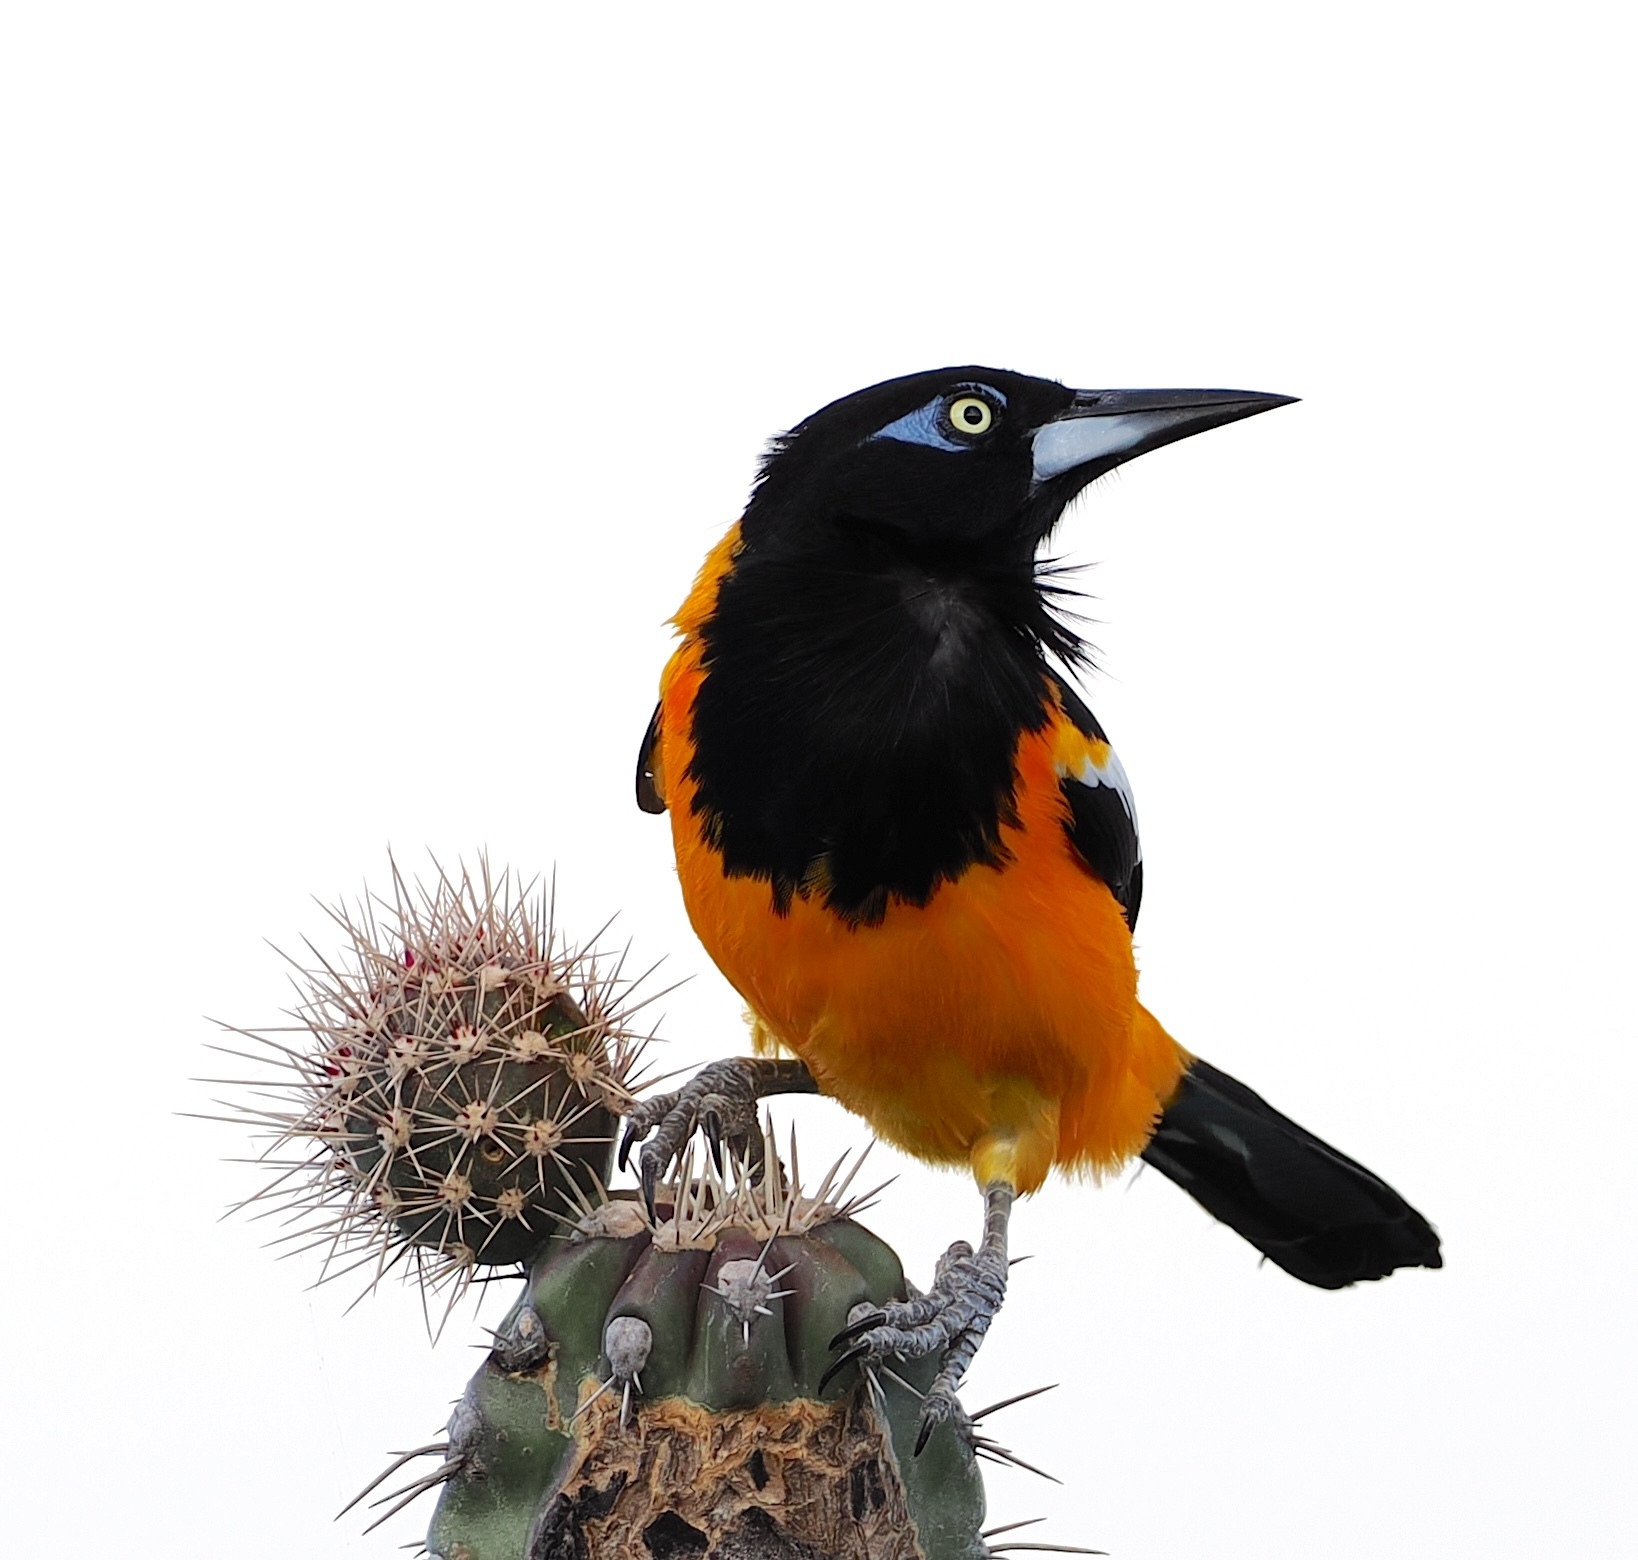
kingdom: Animalia
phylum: Chordata
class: Aves
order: Passeriformes
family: Icteridae
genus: Icterus
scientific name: Icterus icterus
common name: Venezuelan troupial
